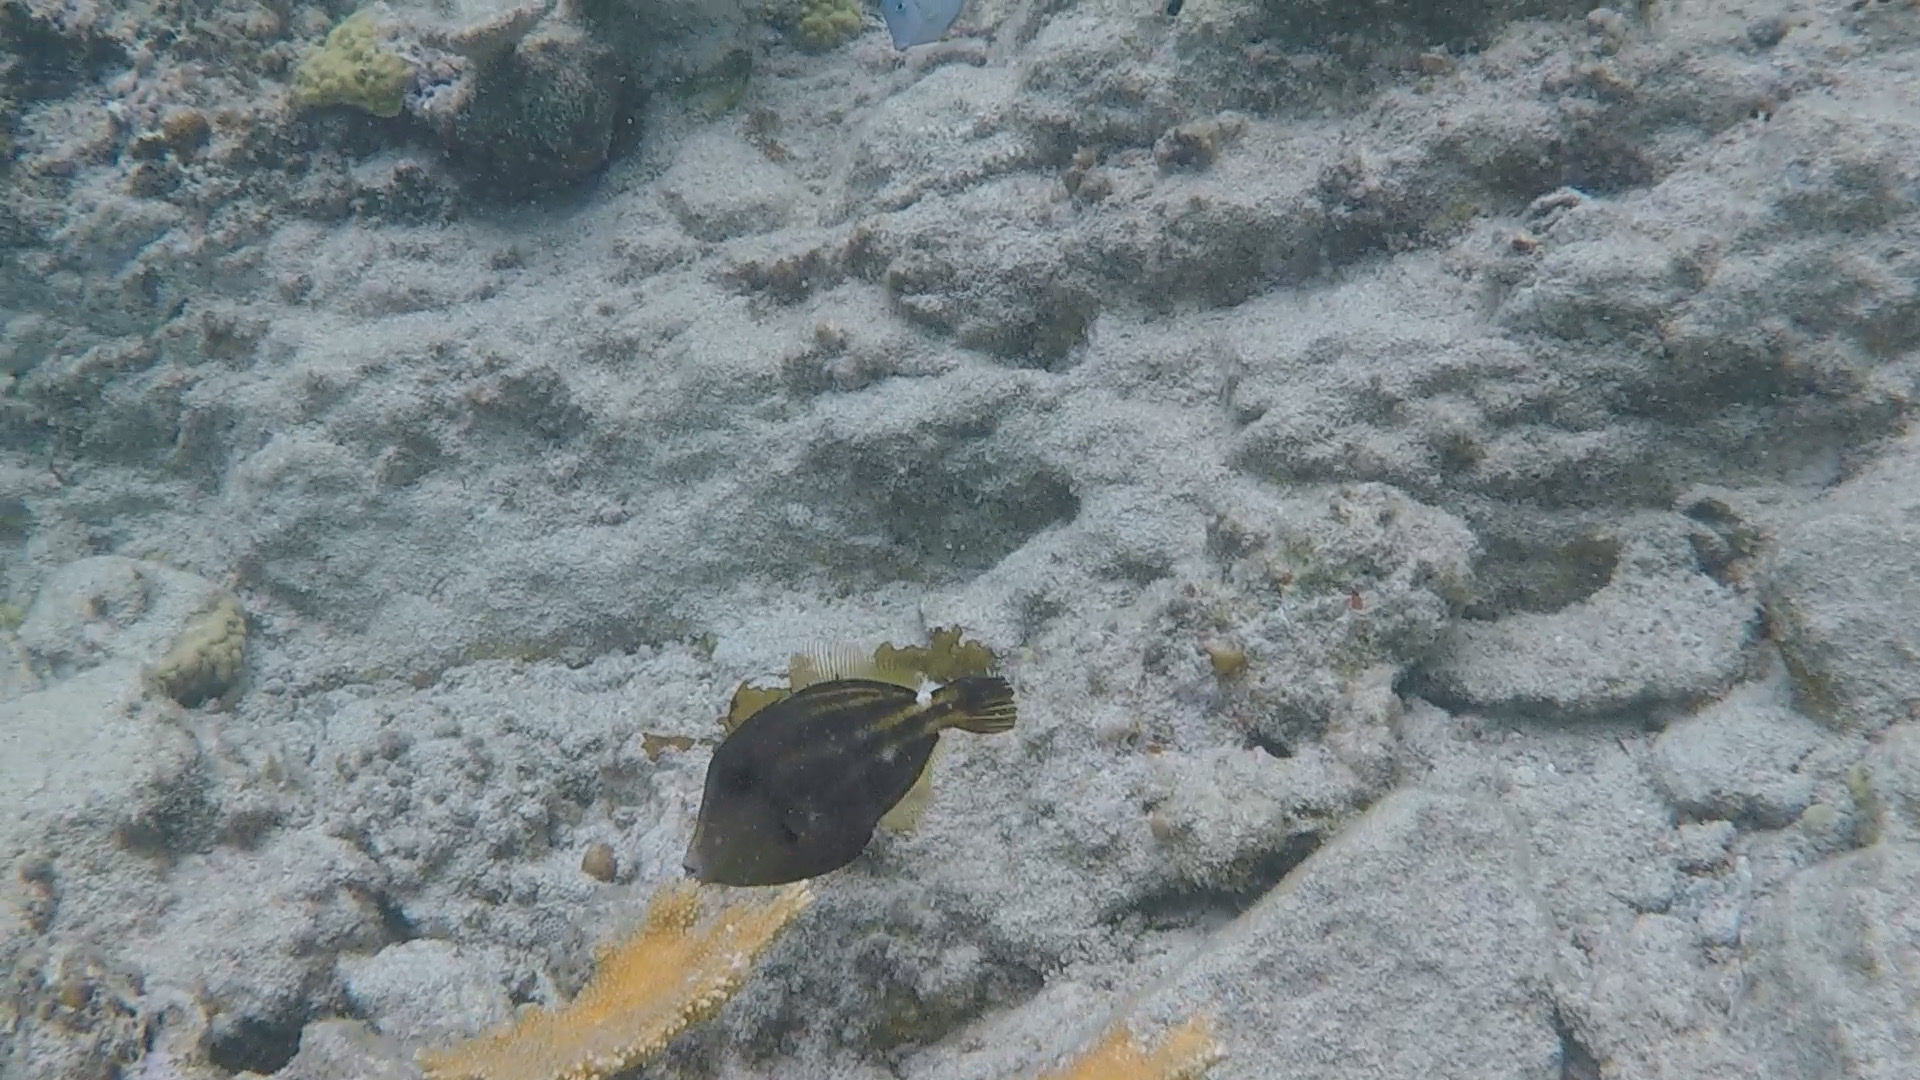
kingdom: Animalia
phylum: Chordata
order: Tetraodontiformes
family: Monacanthidae
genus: Cantherhines
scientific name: Cantherhines pullus
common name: Orangespotted filefish
